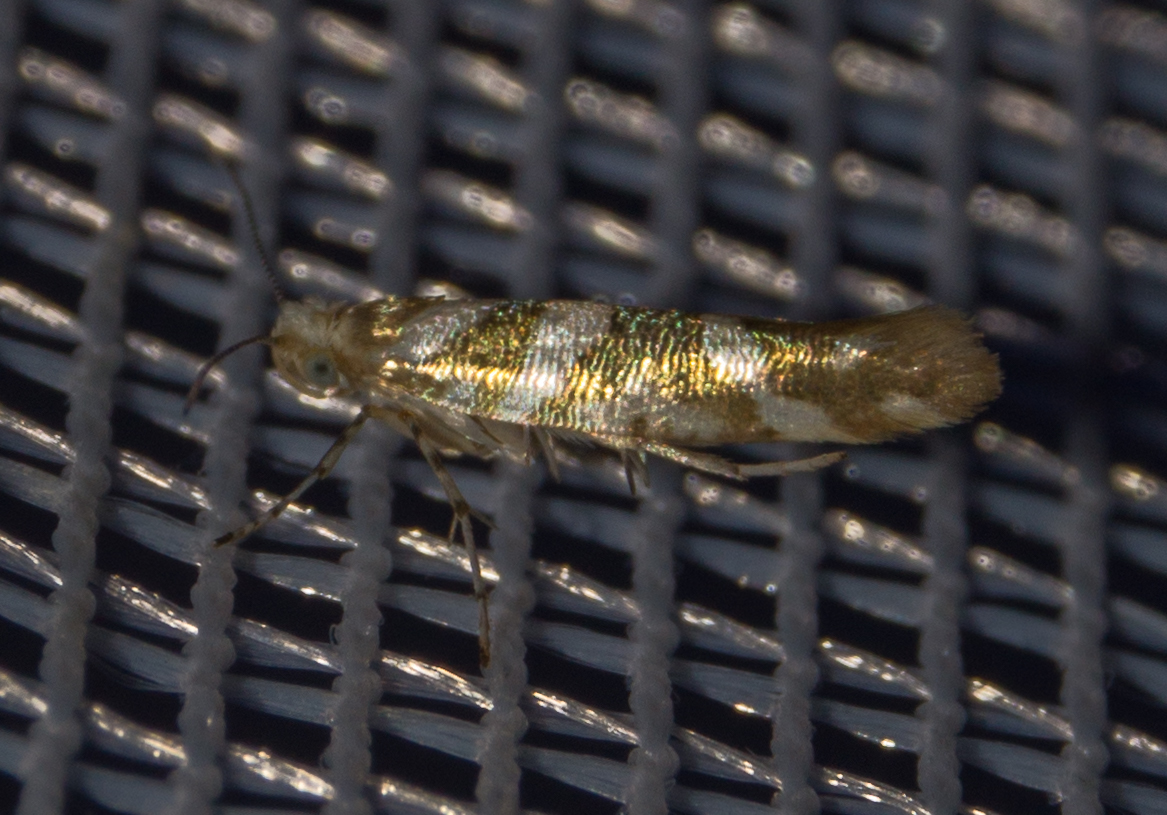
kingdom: Animalia
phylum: Arthropoda
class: Insecta
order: Lepidoptera
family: Argyresthiidae
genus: Argyresthia
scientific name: Argyresthia goedartella
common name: Golden argent
